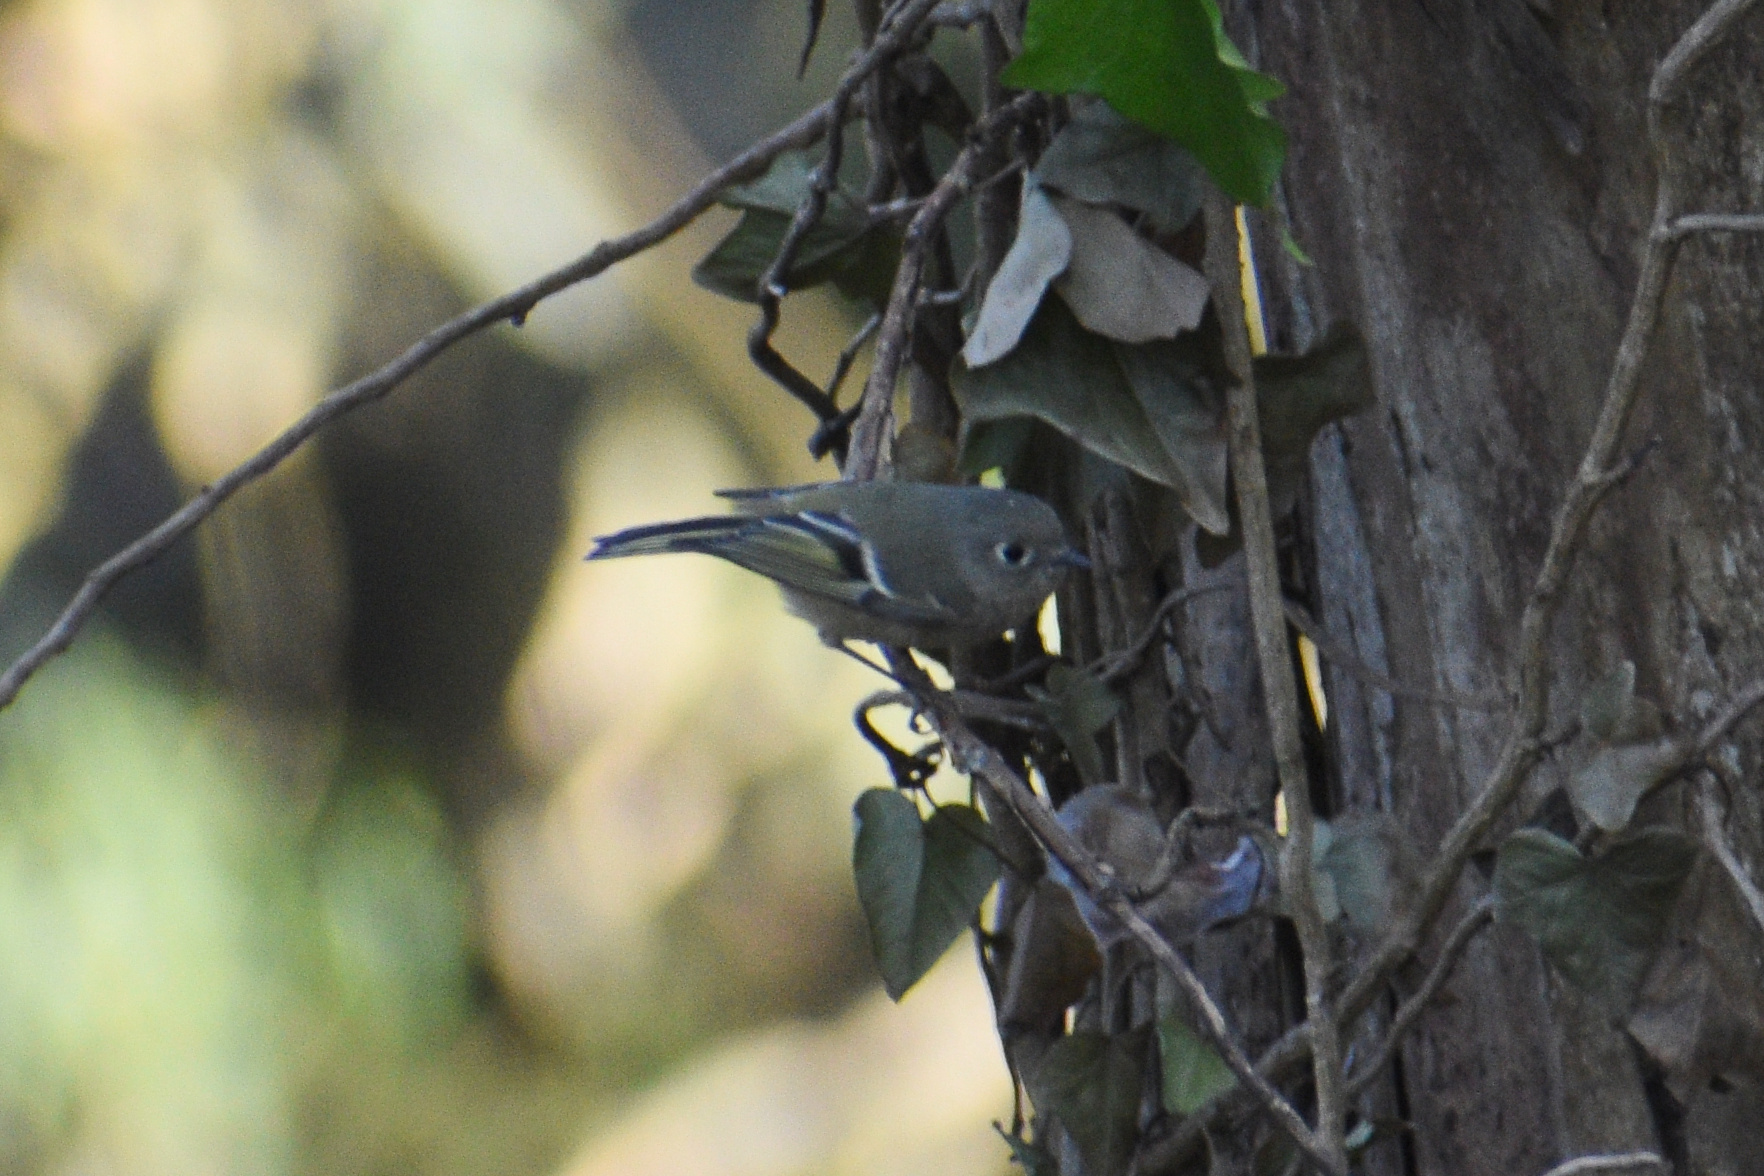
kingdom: Animalia
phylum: Chordata
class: Aves
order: Passeriformes
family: Regulidae
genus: Regulus
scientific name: Regulus calendula
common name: Ruby-crowned kinglet
